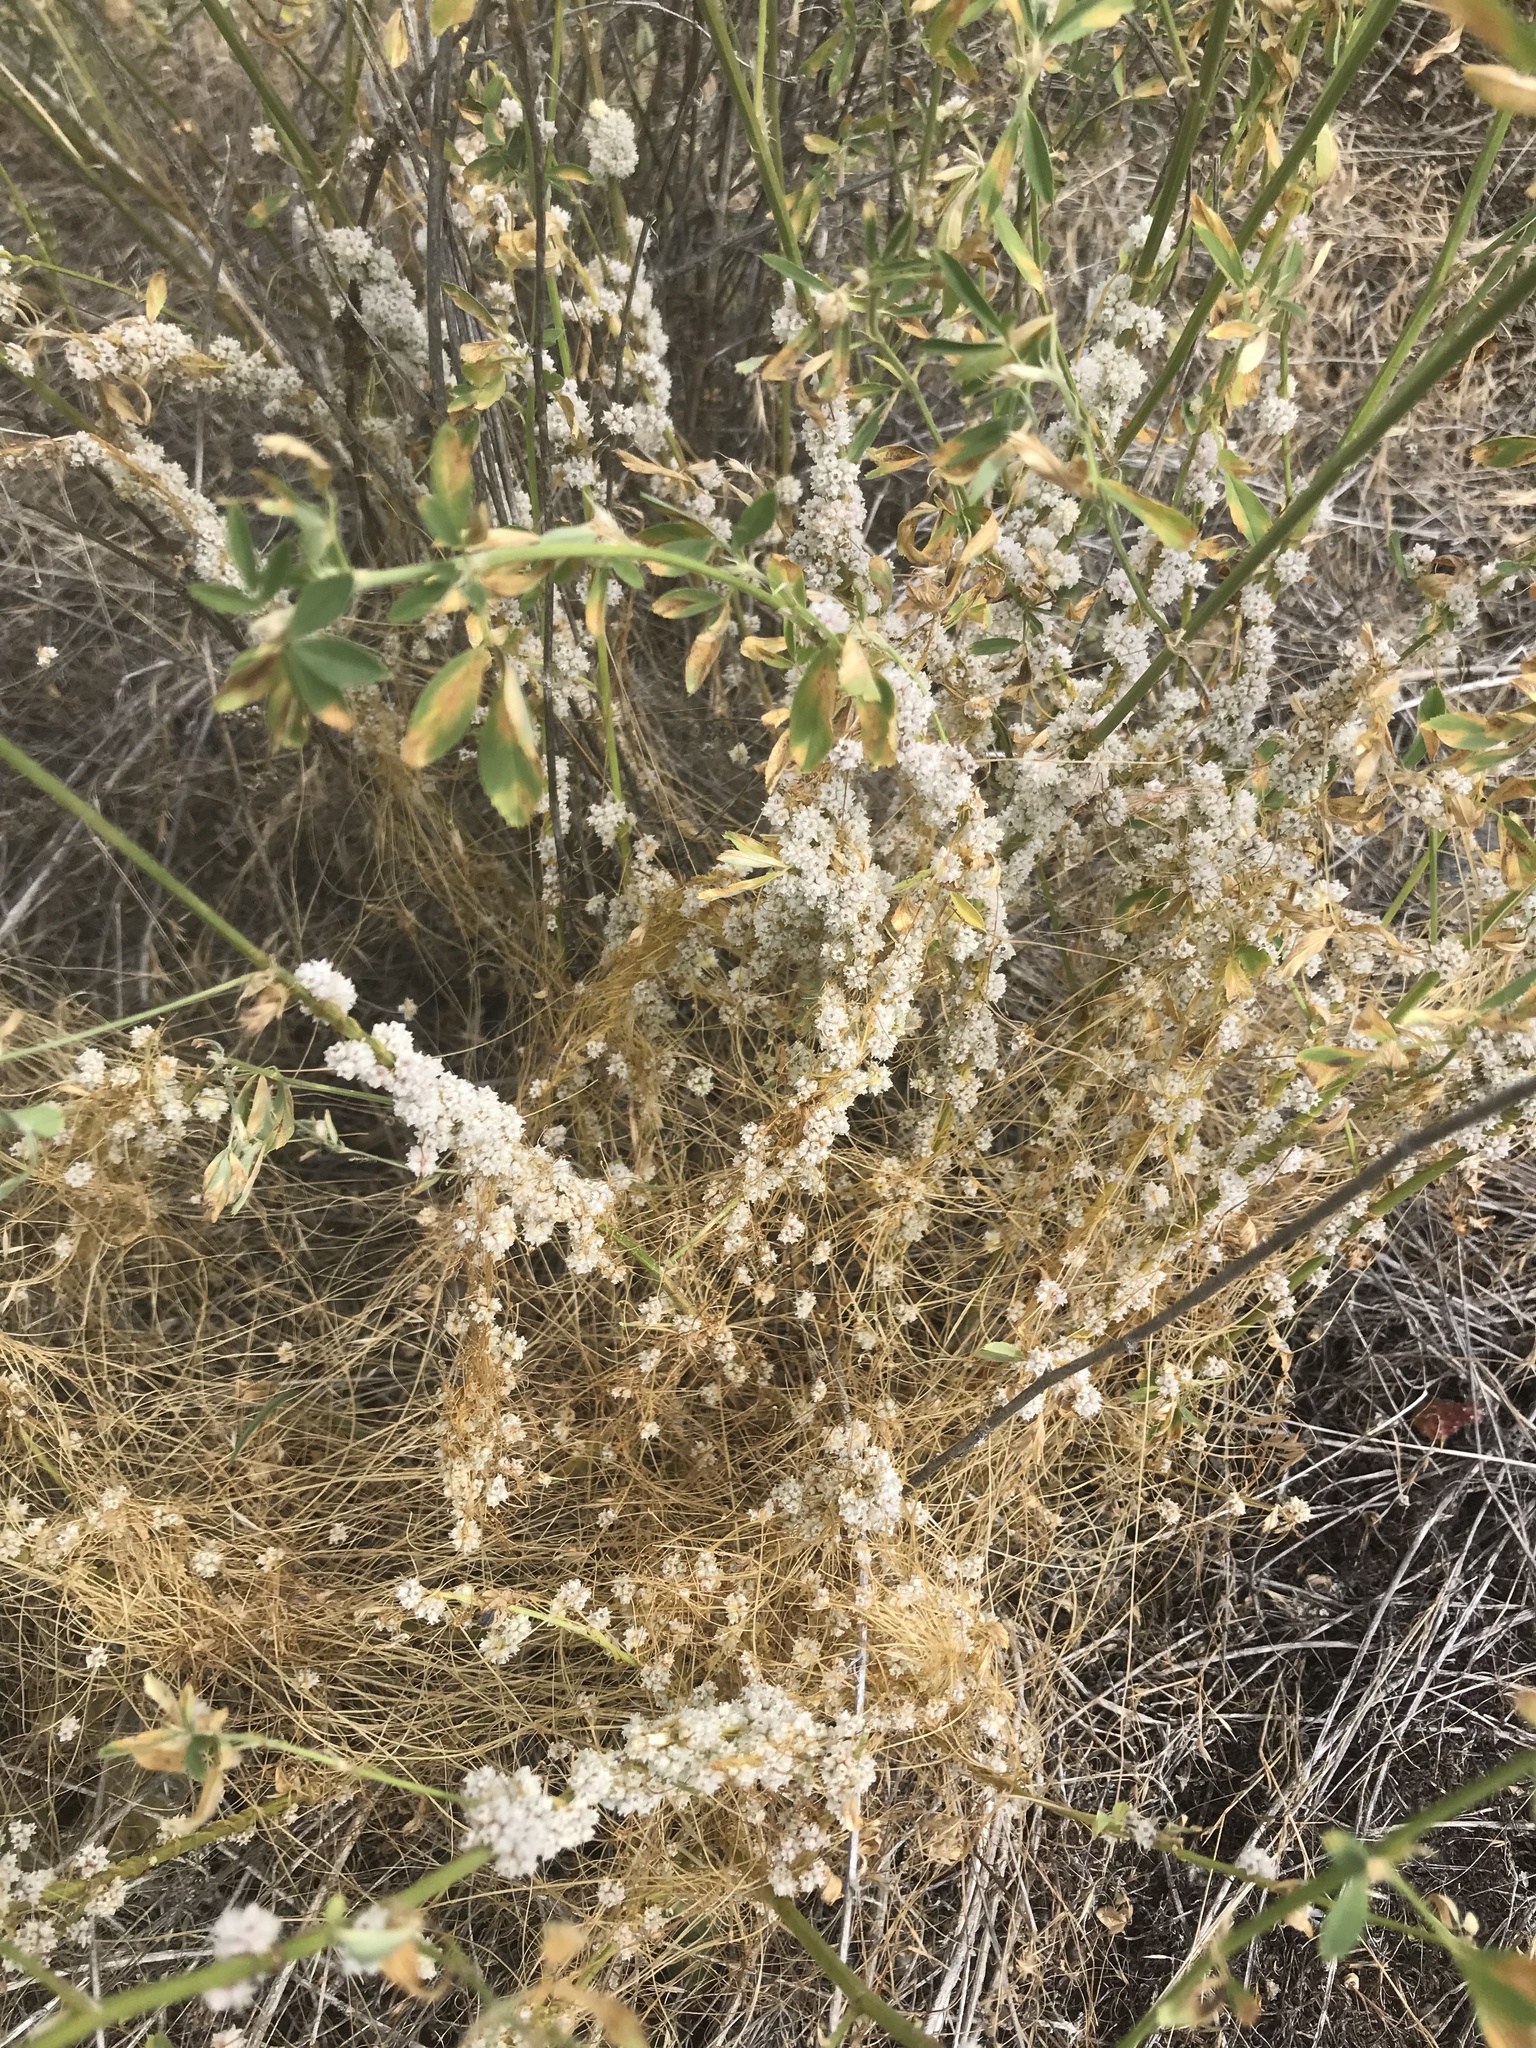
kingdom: Plantae
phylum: Tracheophyta
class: Magnoliopsida
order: Solanales
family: Convolvulaceae
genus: Cuscuta
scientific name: Cuscuta approximata
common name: Alfalfa dodder
